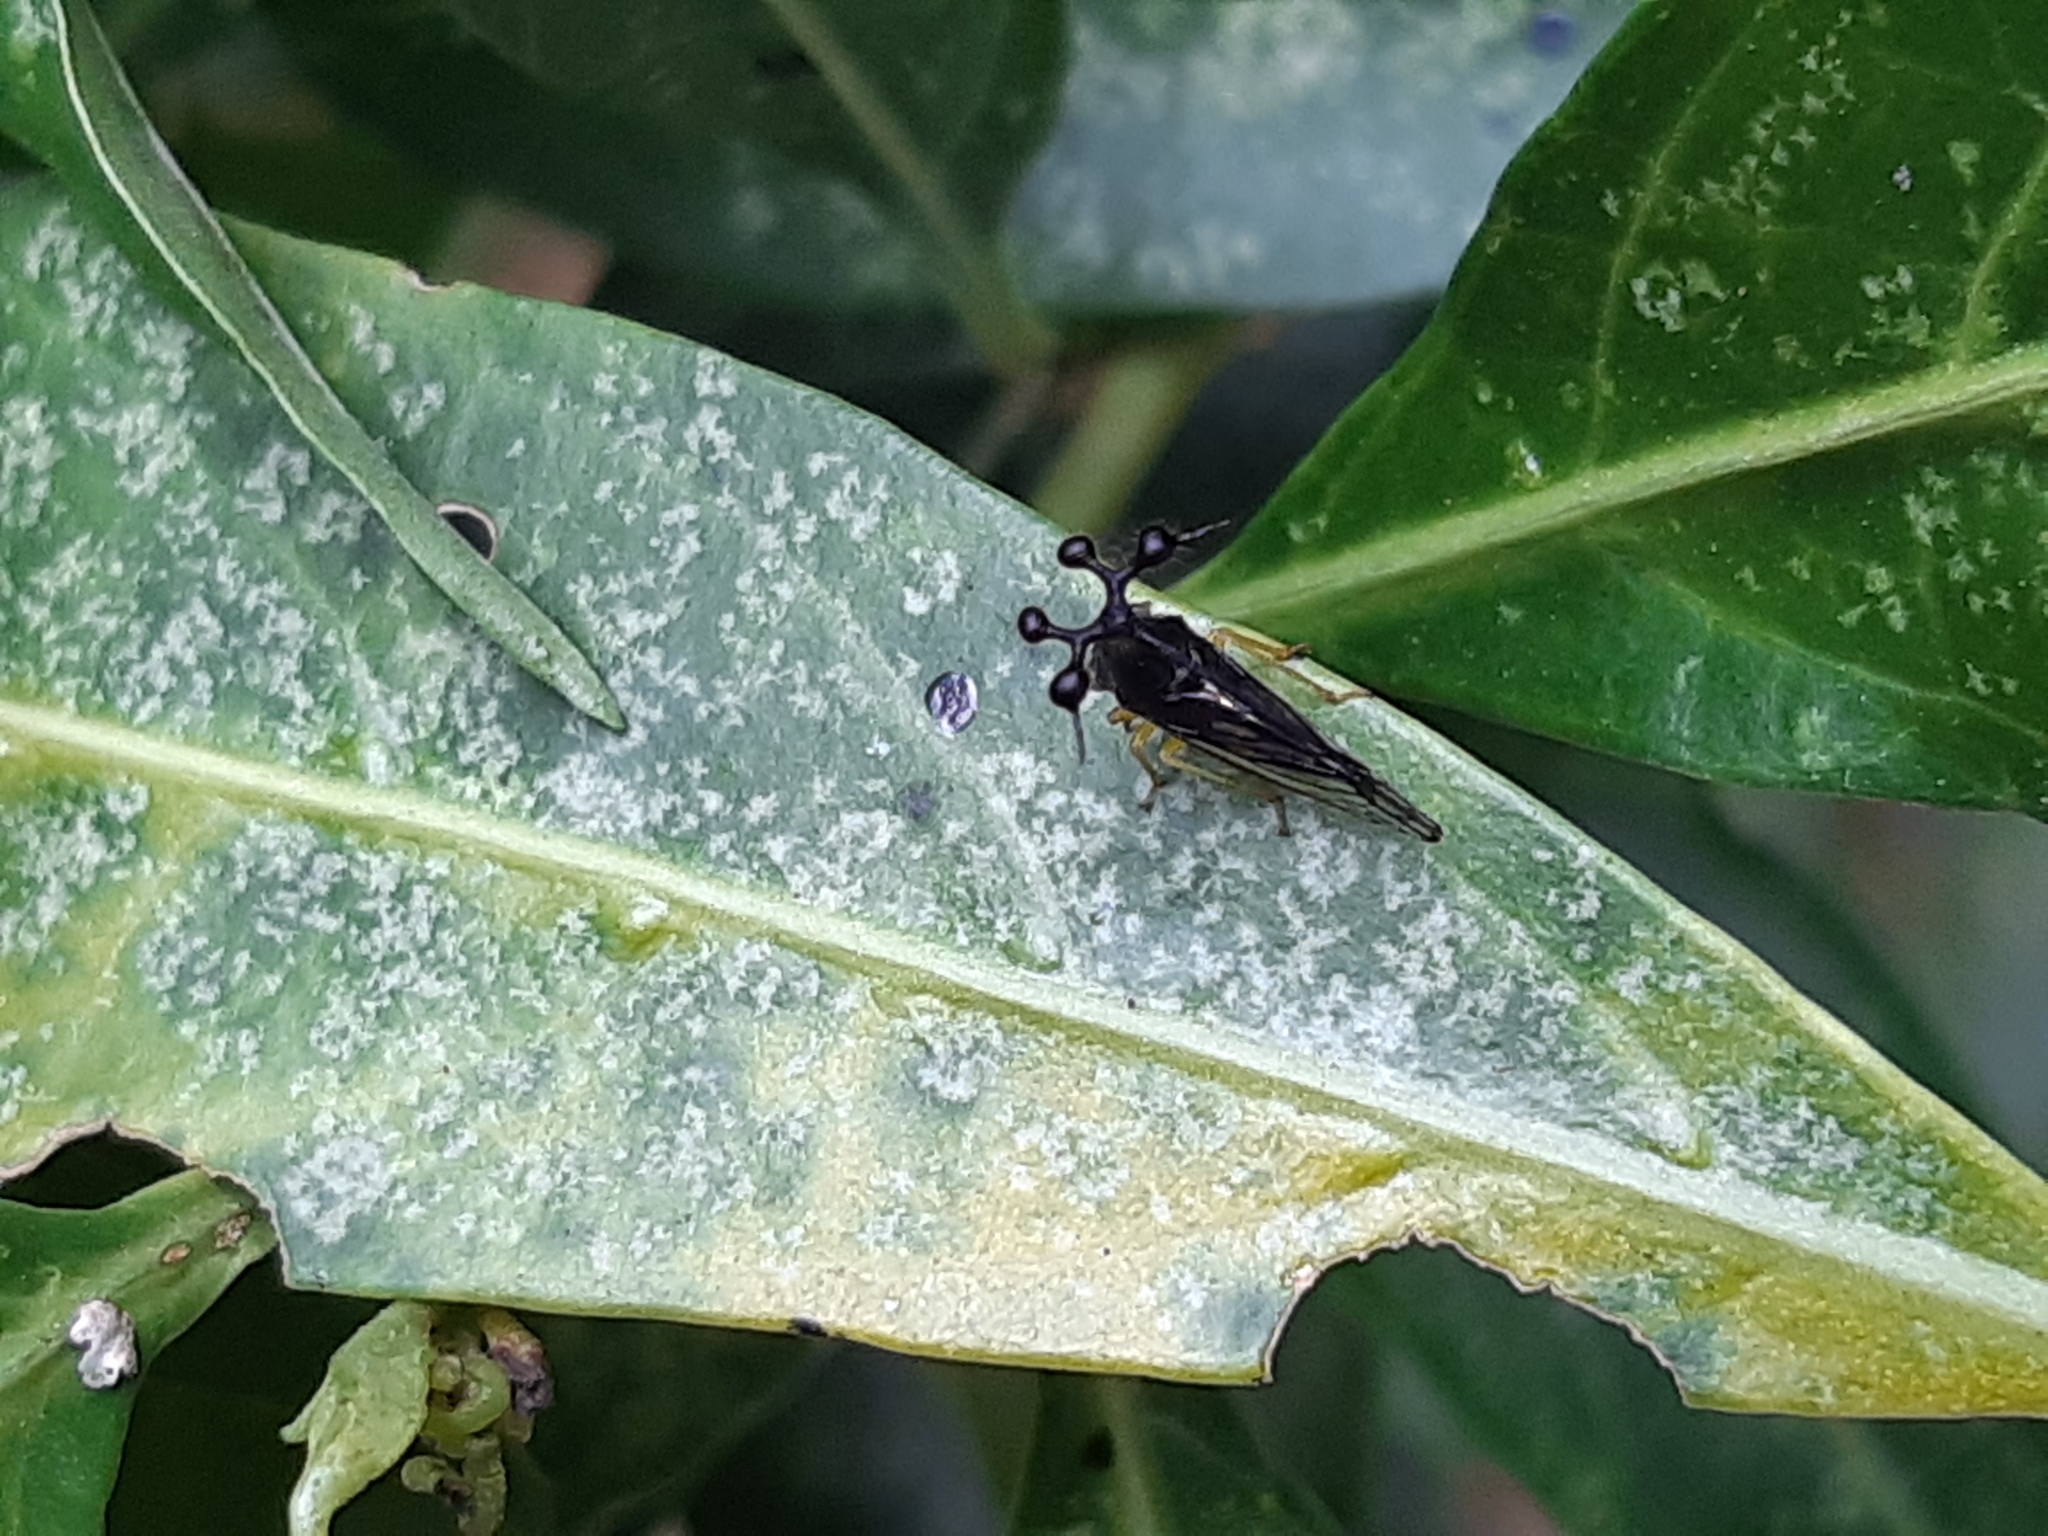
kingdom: Animalia
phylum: Arthropoda
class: Insecta
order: Hemiptera
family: Membracidae
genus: Bocydium
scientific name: Bocydium globulare
